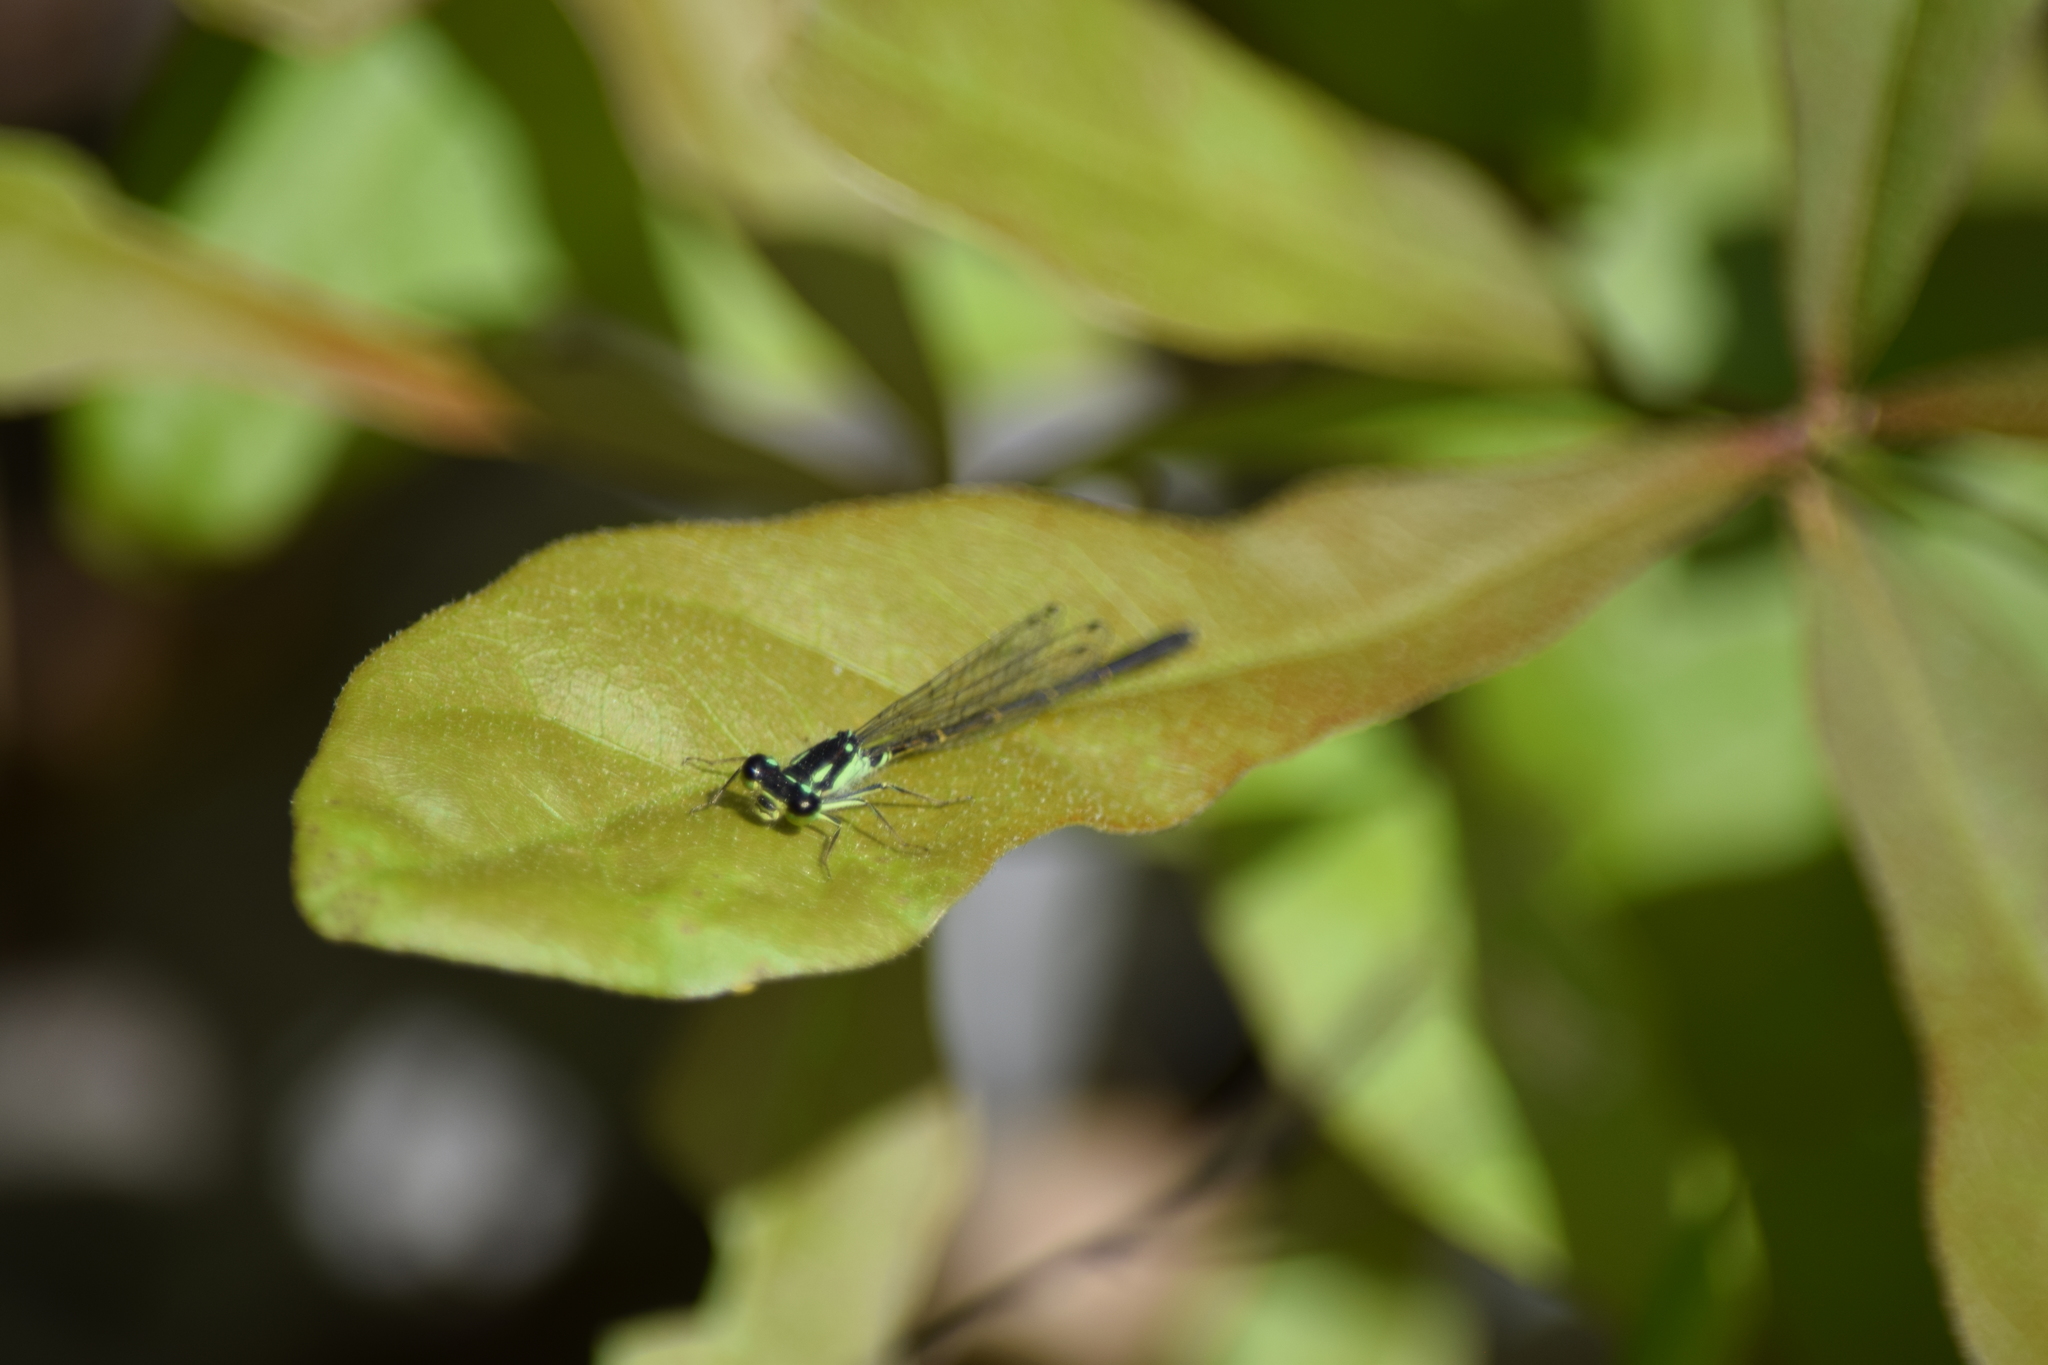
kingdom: Animalia
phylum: Arthropoda
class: Insecta
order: Odonata
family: Coenagrionidae
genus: Ischnura
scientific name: Ischnura posita
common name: Fragile forktail
